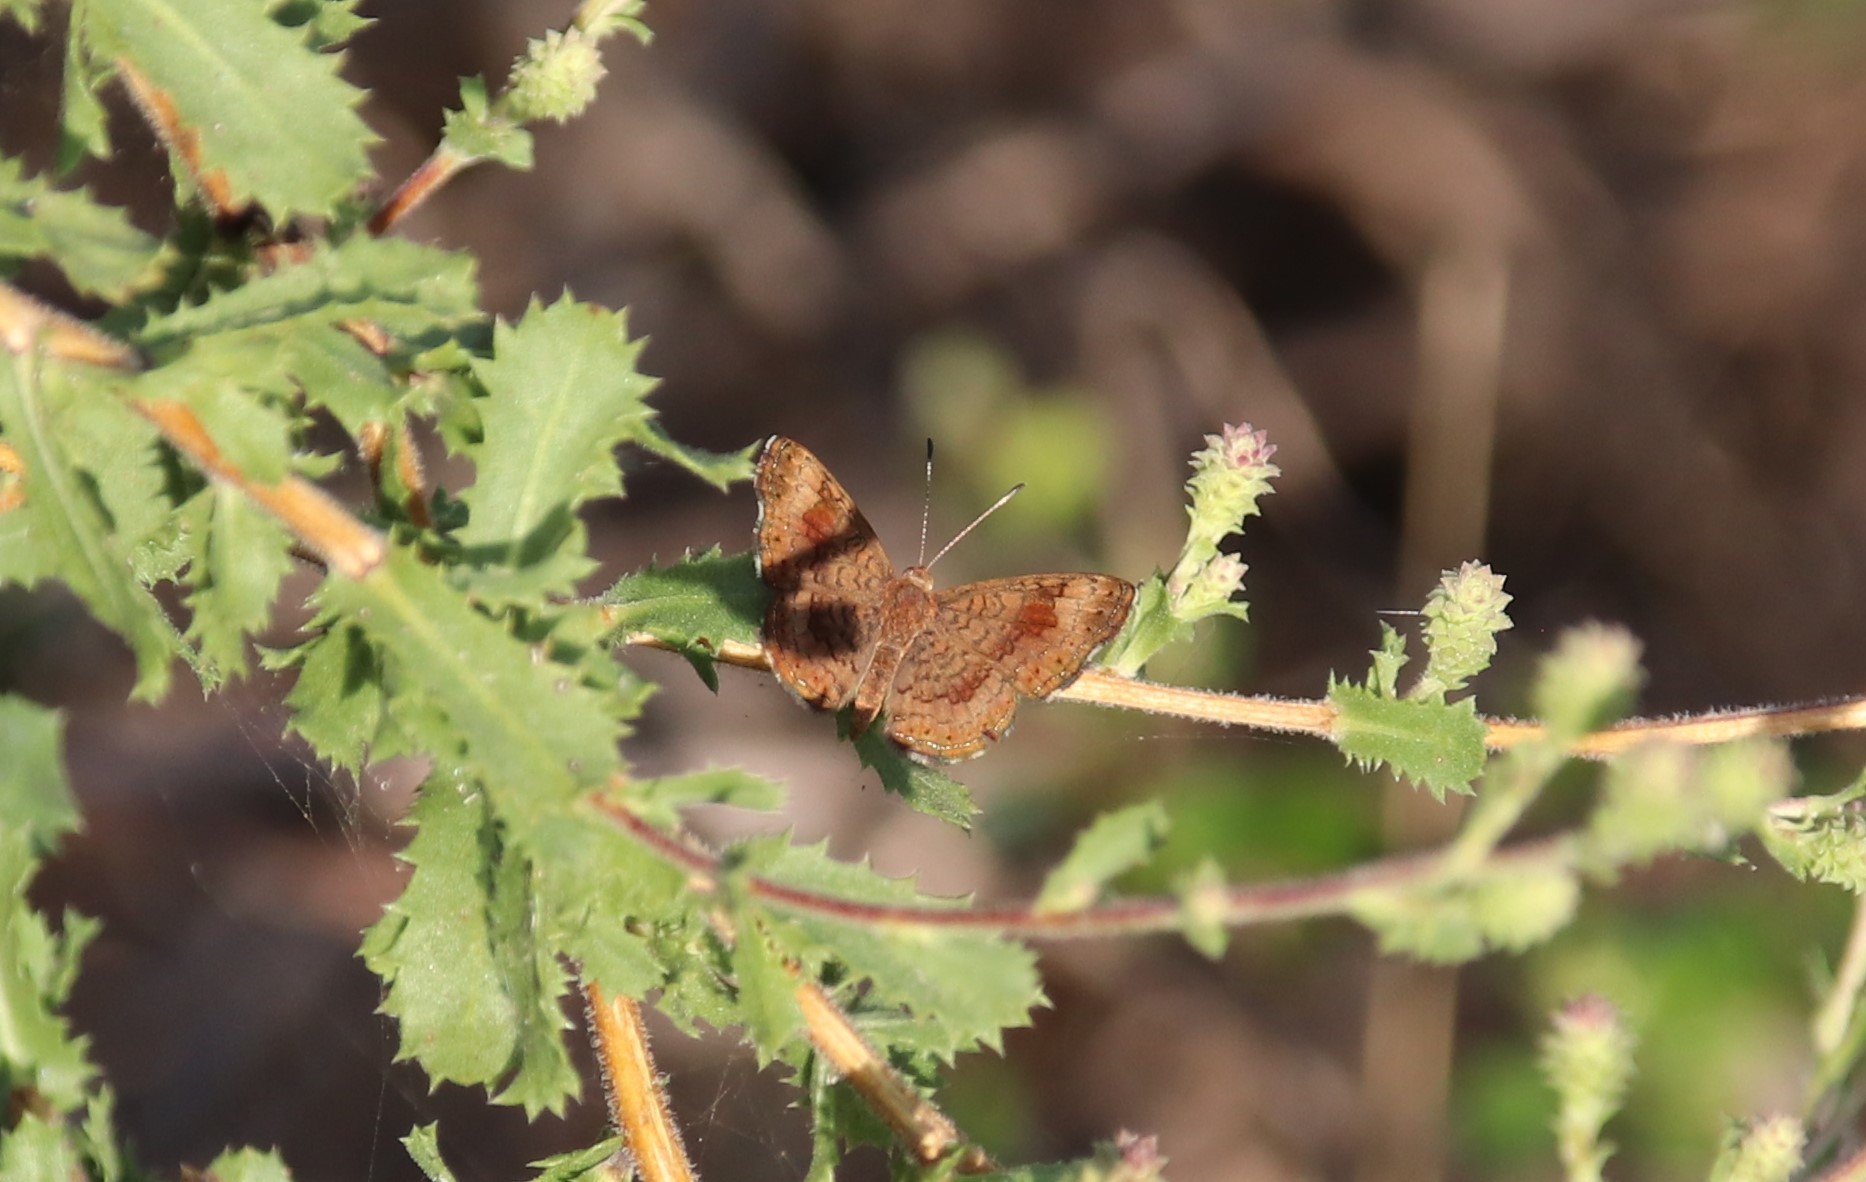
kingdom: Animalia
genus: Calephelis
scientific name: Calephelis nemesis
